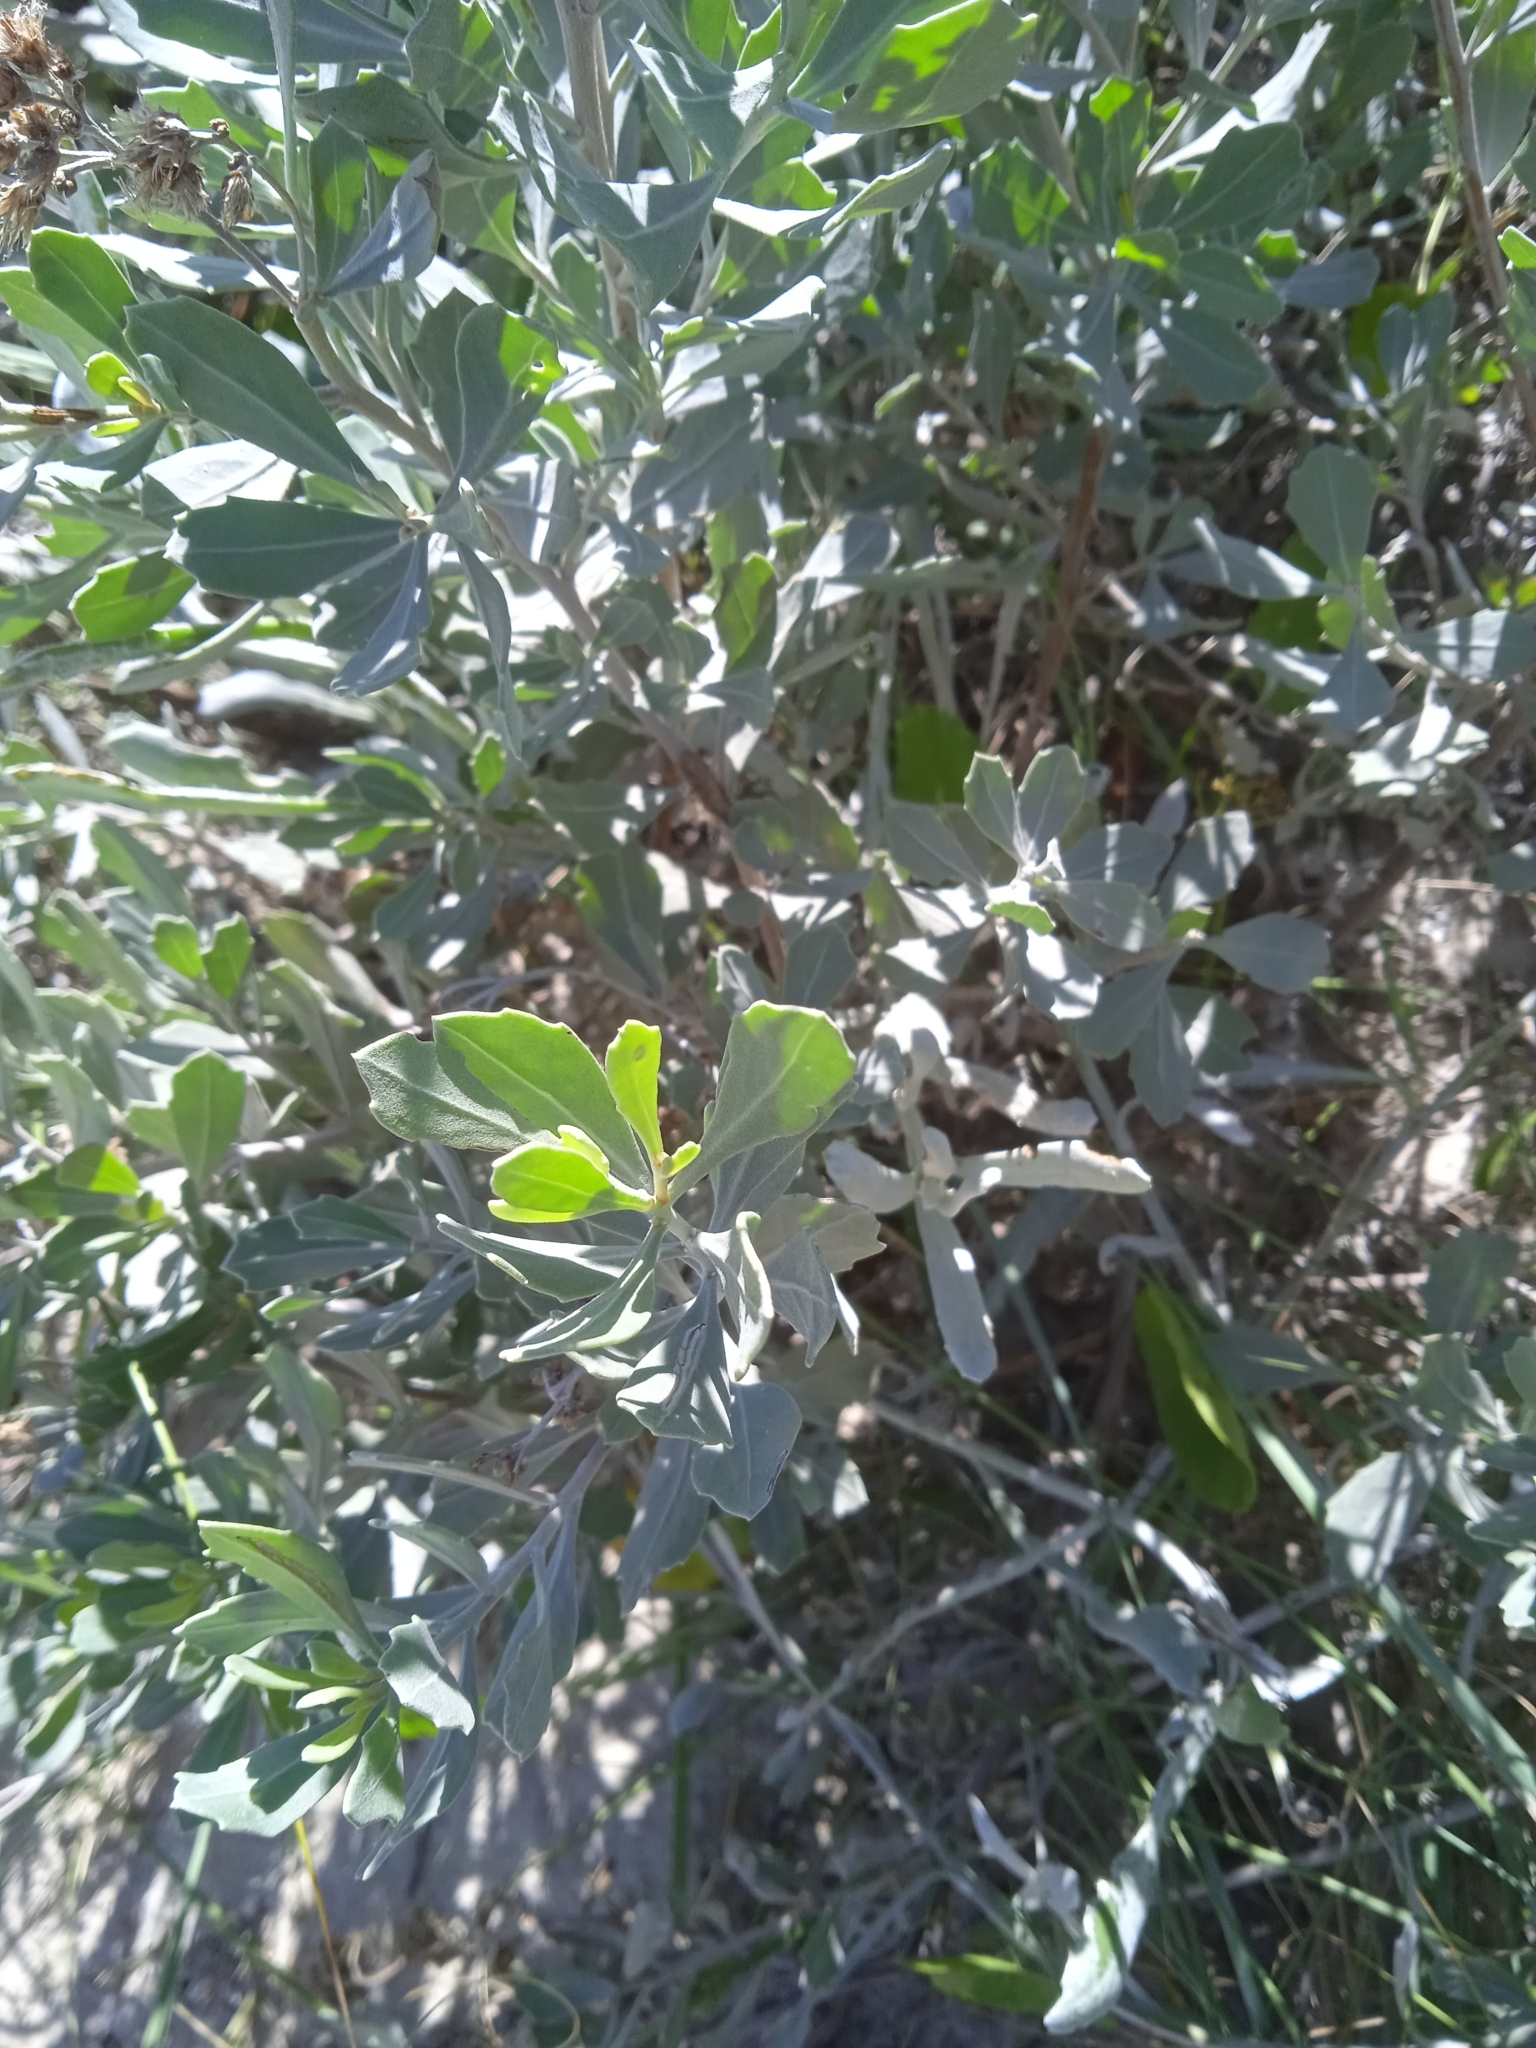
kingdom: Plantae
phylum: Tracheophyta
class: Magnoliopsida
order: Asterales
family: Asteraceae
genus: Tessaria
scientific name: Tessaria absinthioides
